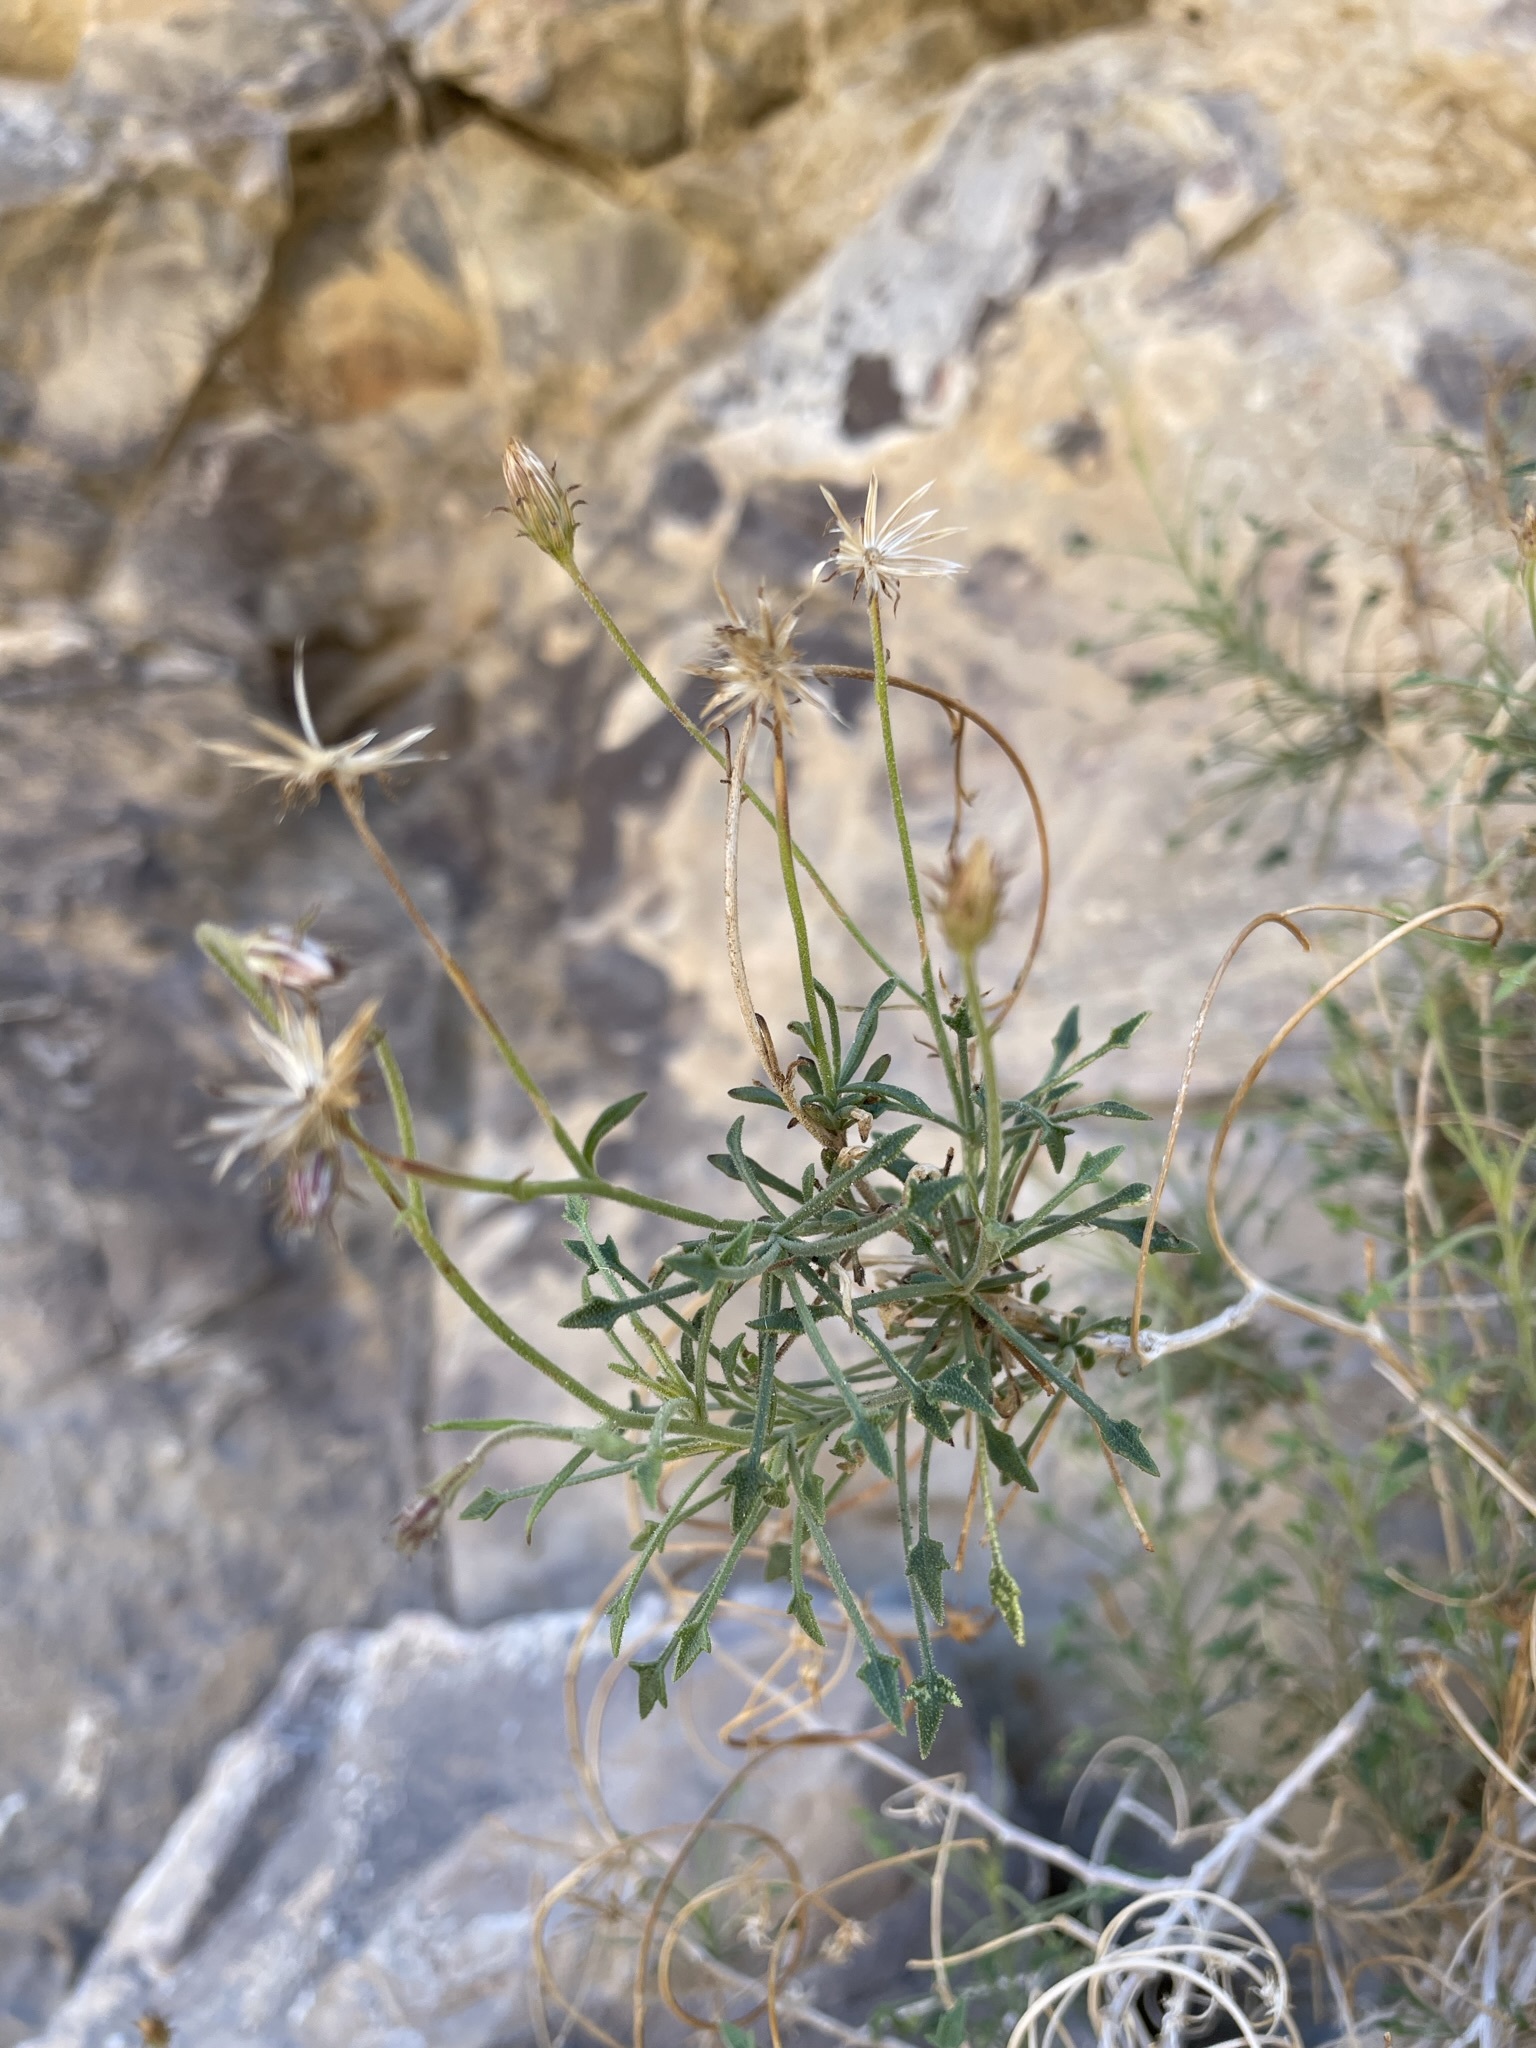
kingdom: Plantae
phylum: Tracheophyta
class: Magnoliopsida
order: Asterales
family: Asteraceae
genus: Pleurocoronis
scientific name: Pleurocoronis pluriseta
